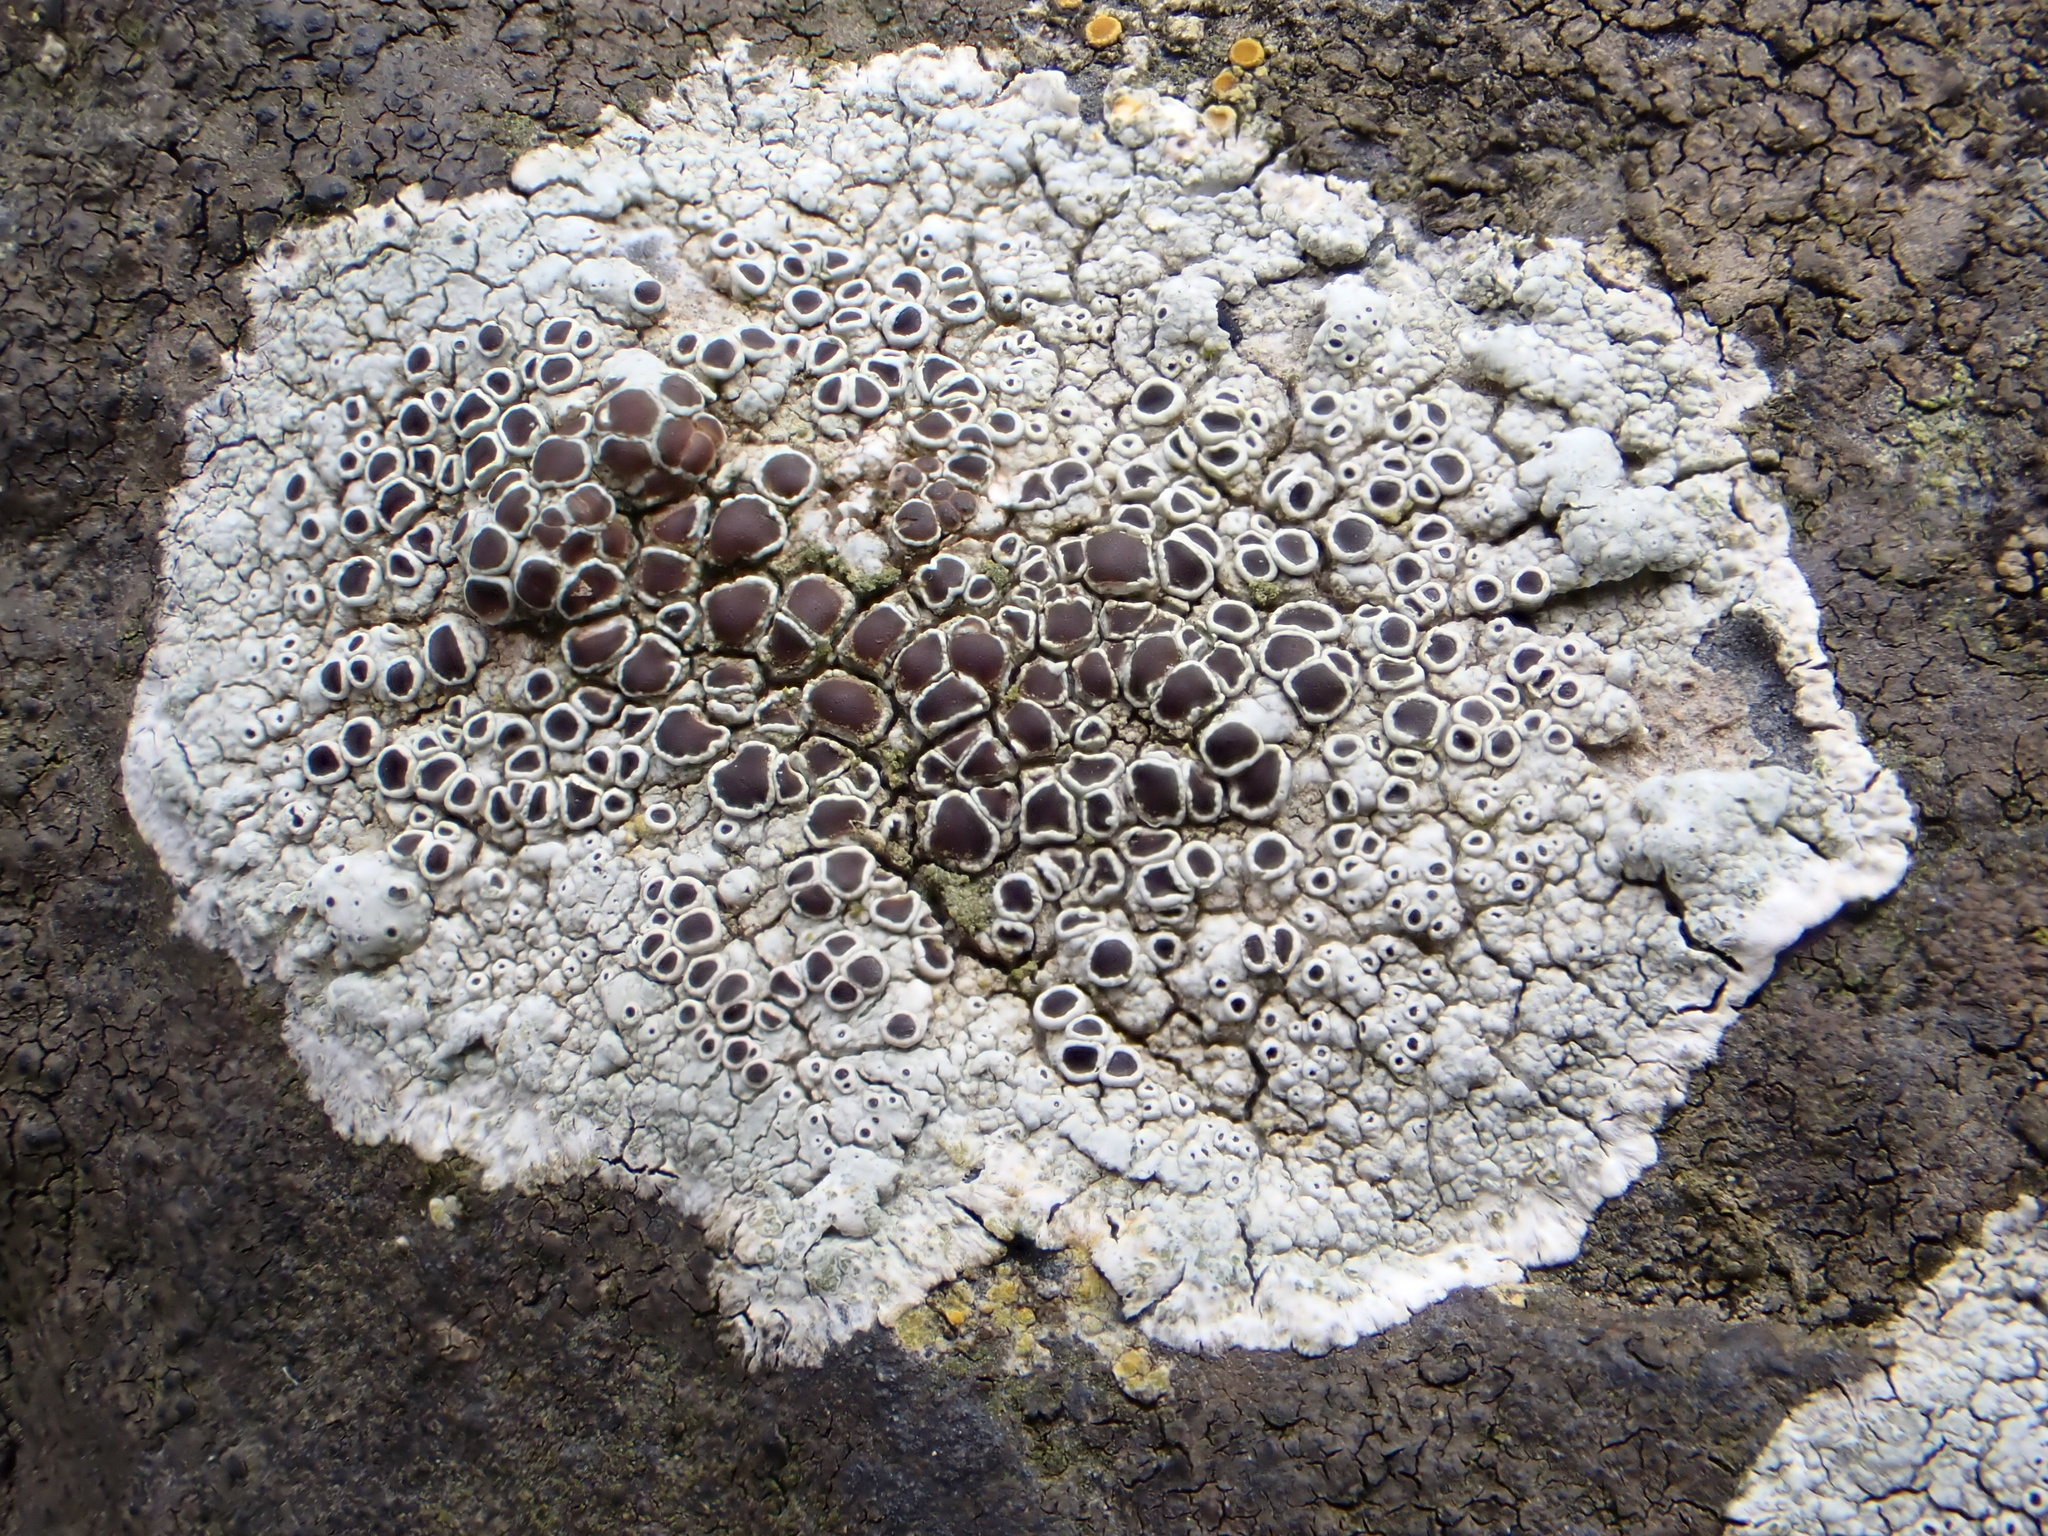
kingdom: Fungi
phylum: Ascomycota
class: Lecanoromycetes
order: Lecanorales
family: Lecanoraceae
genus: Lecanora
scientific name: Lecanora campestris
